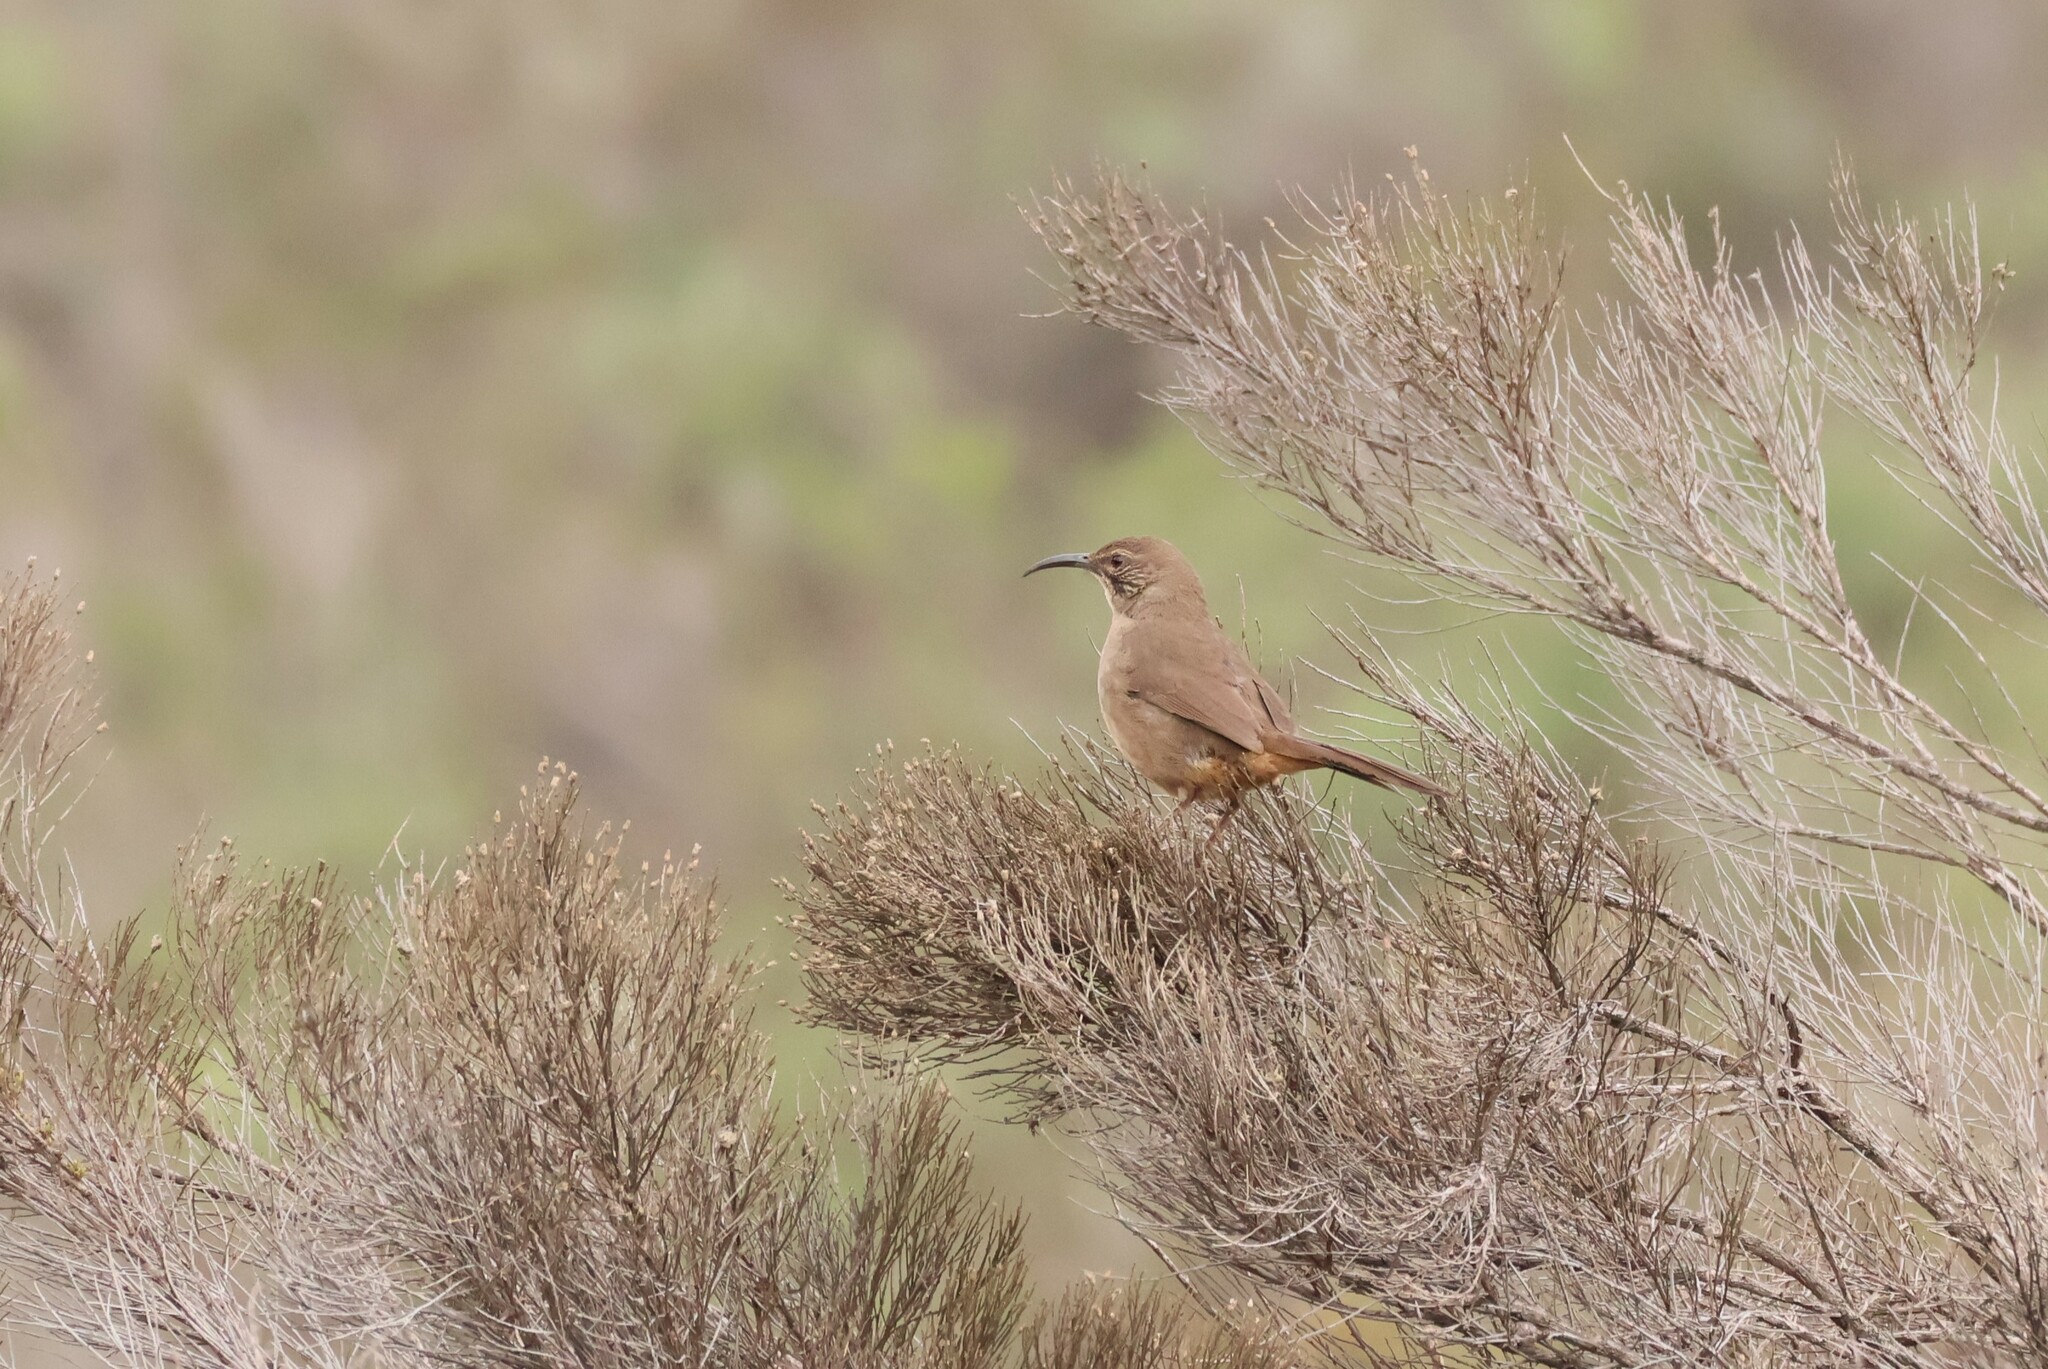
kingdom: Animalia
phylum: Chordata
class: Aves
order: Passeriformes
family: Mimidae
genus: Toxostoma
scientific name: Toxostoma redivivum
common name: California thrasher
